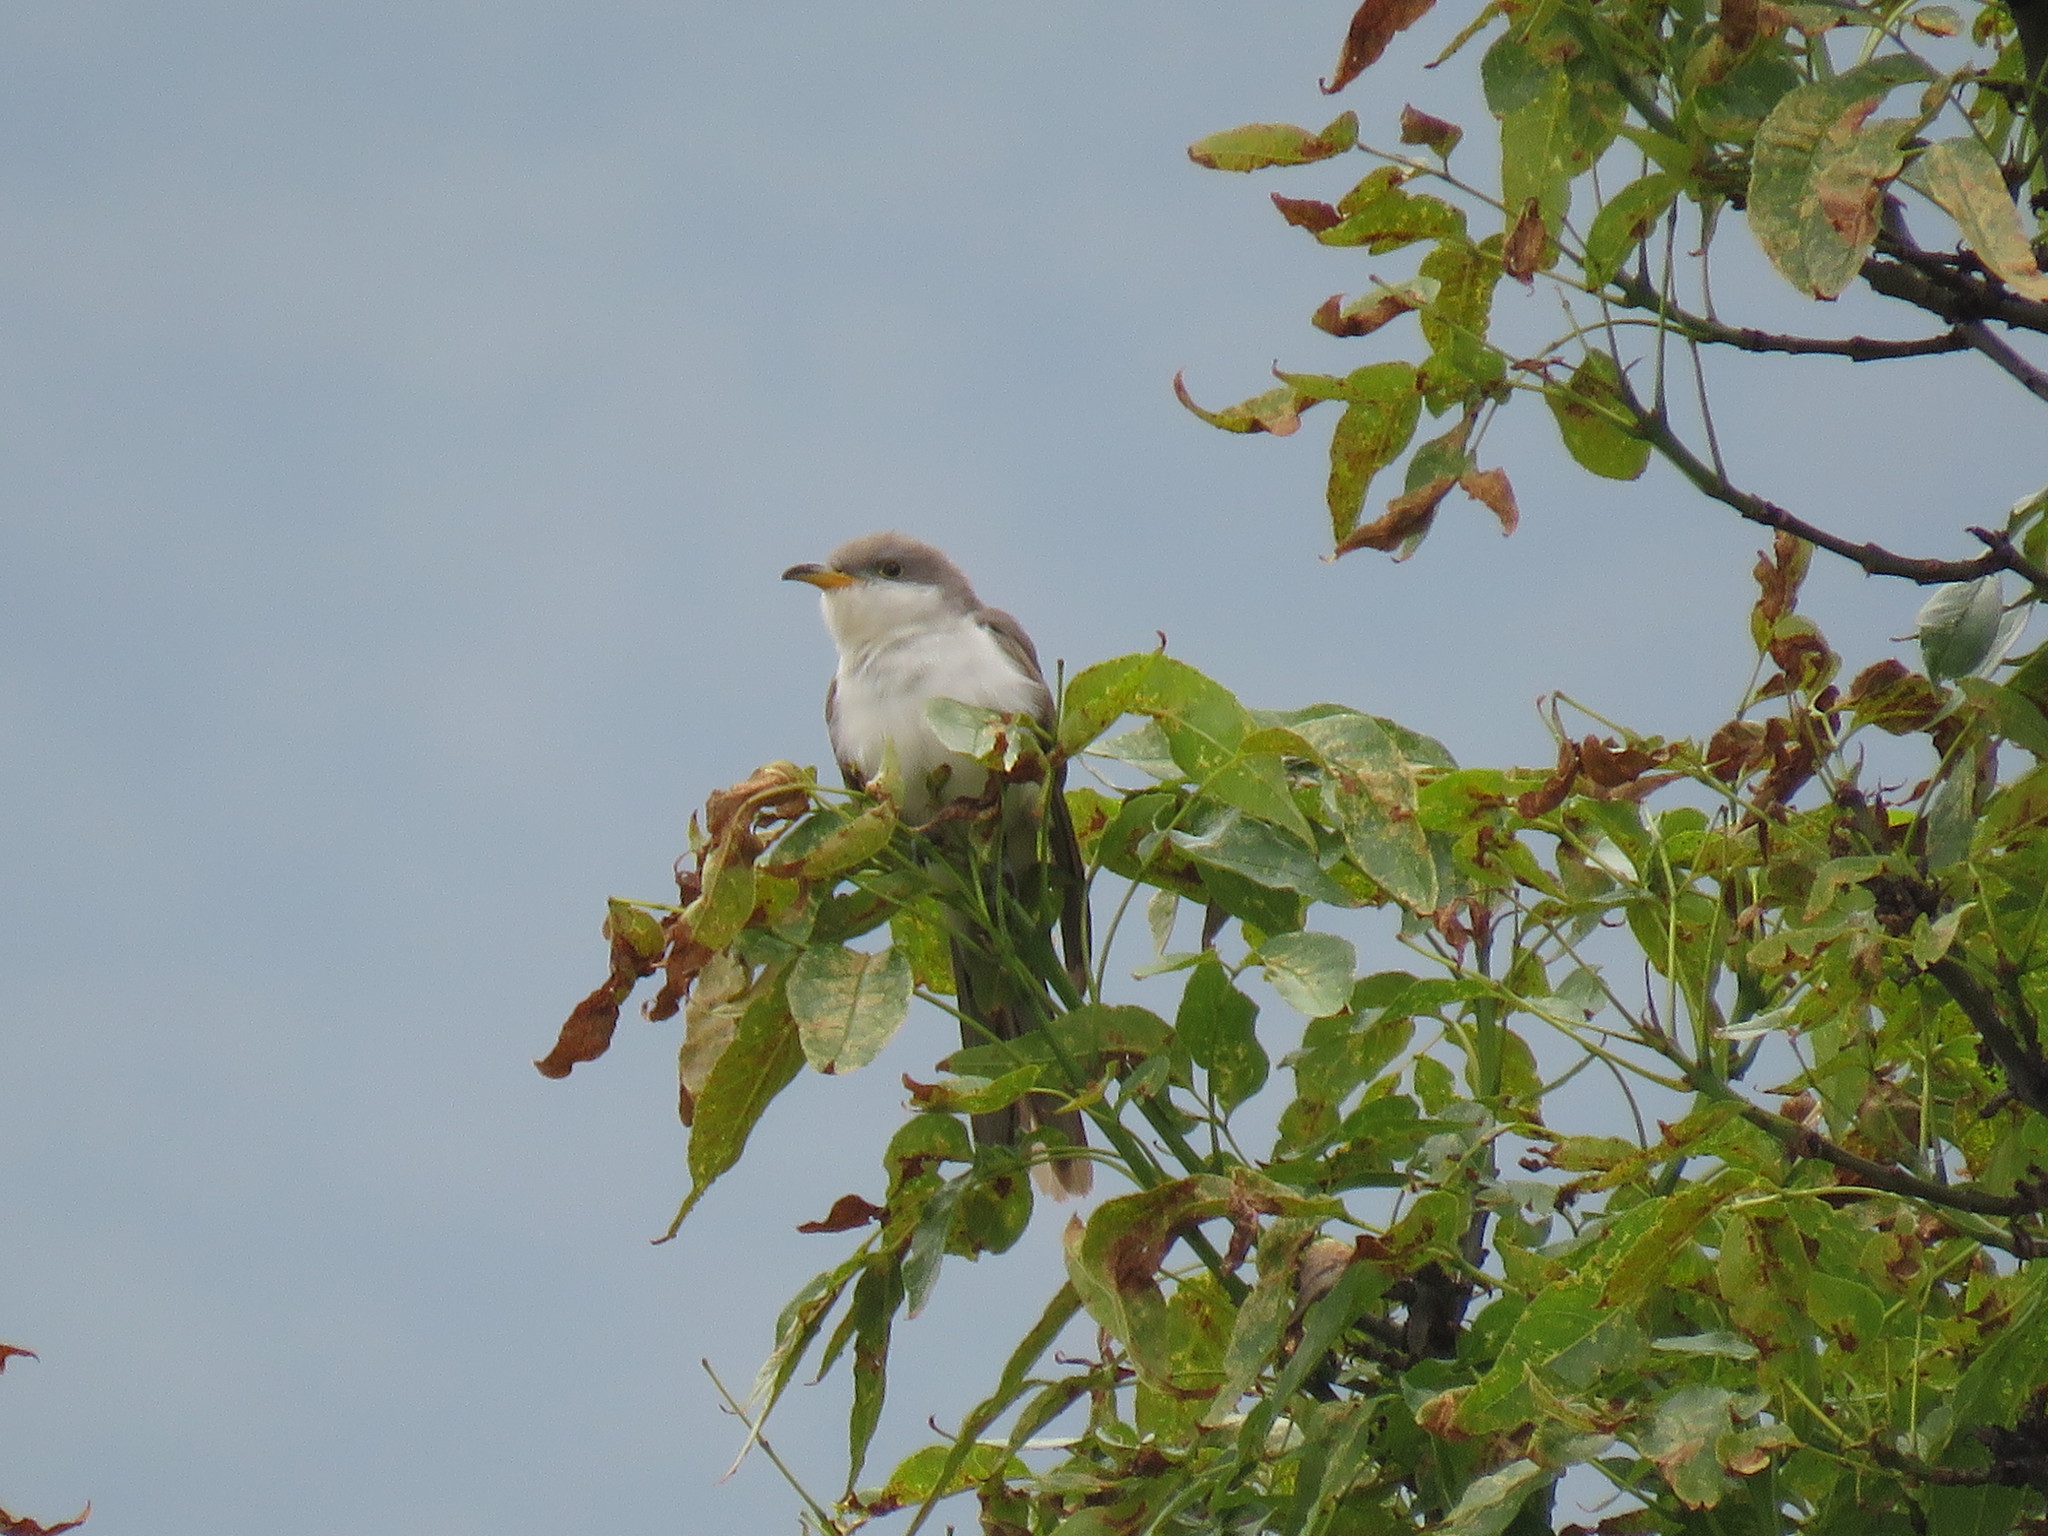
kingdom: Animalia
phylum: Chordata
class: Aves
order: Cuculiformes
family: Cuculidae
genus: Coccyzus
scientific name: Coccyzus americanus
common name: Yellow-billed cuckoo
